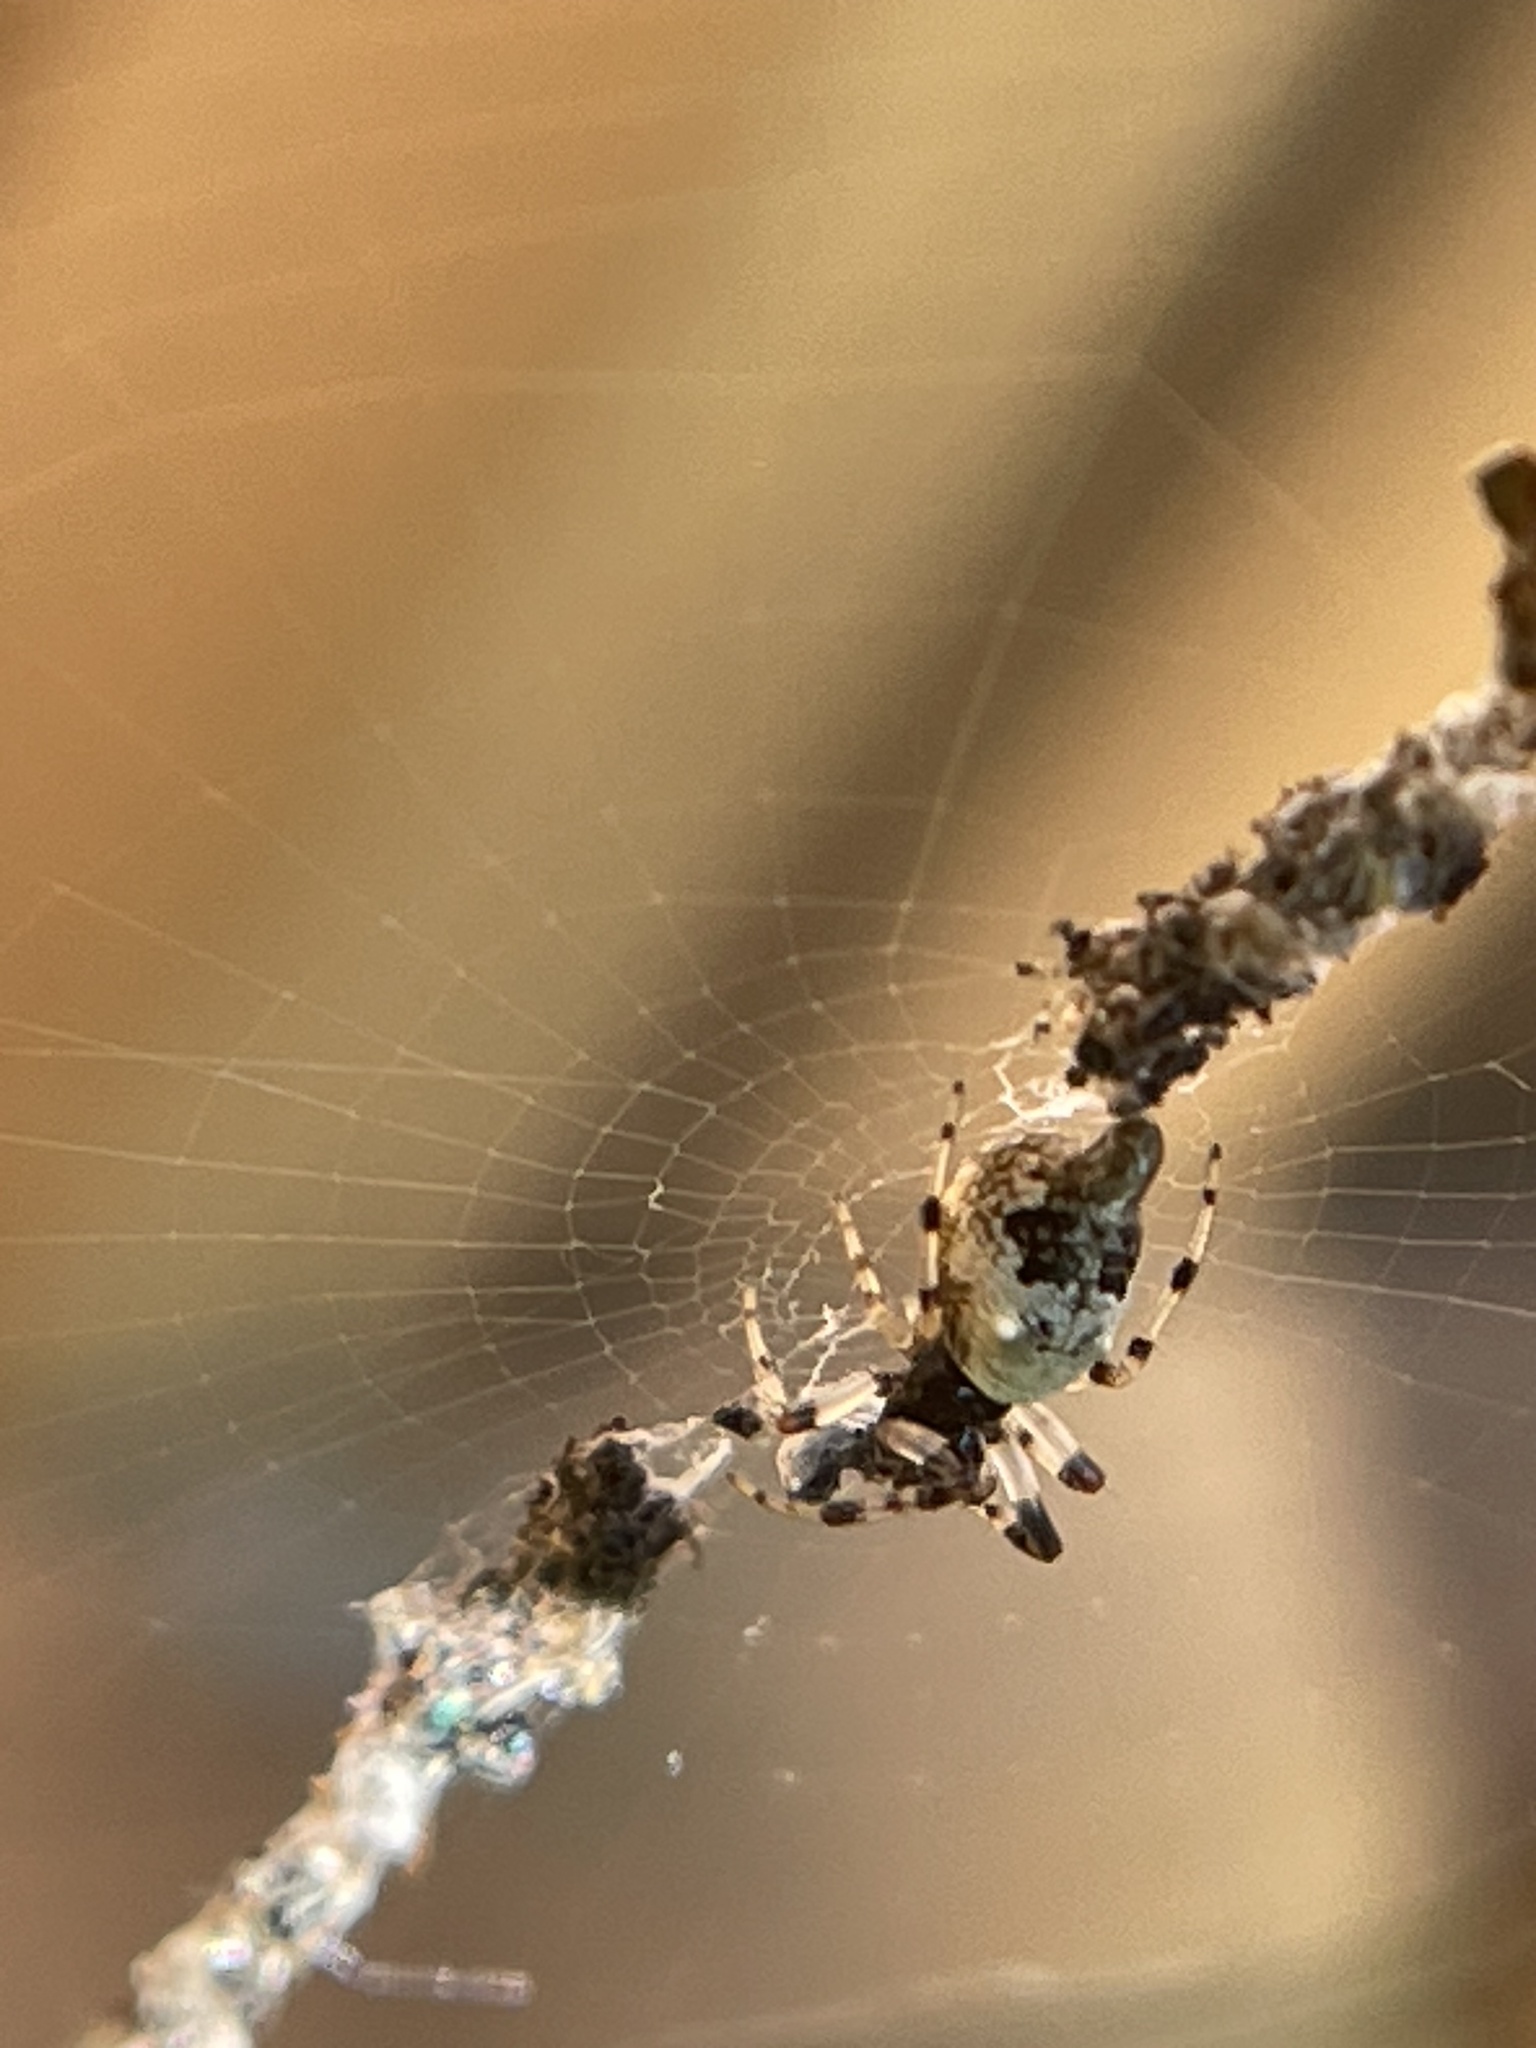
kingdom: Animalia
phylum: Arthropoda
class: Arachnida
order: Araneae
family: Araneidae
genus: Cyclosa
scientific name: Cyclosa turbinata
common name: Orb weavers
